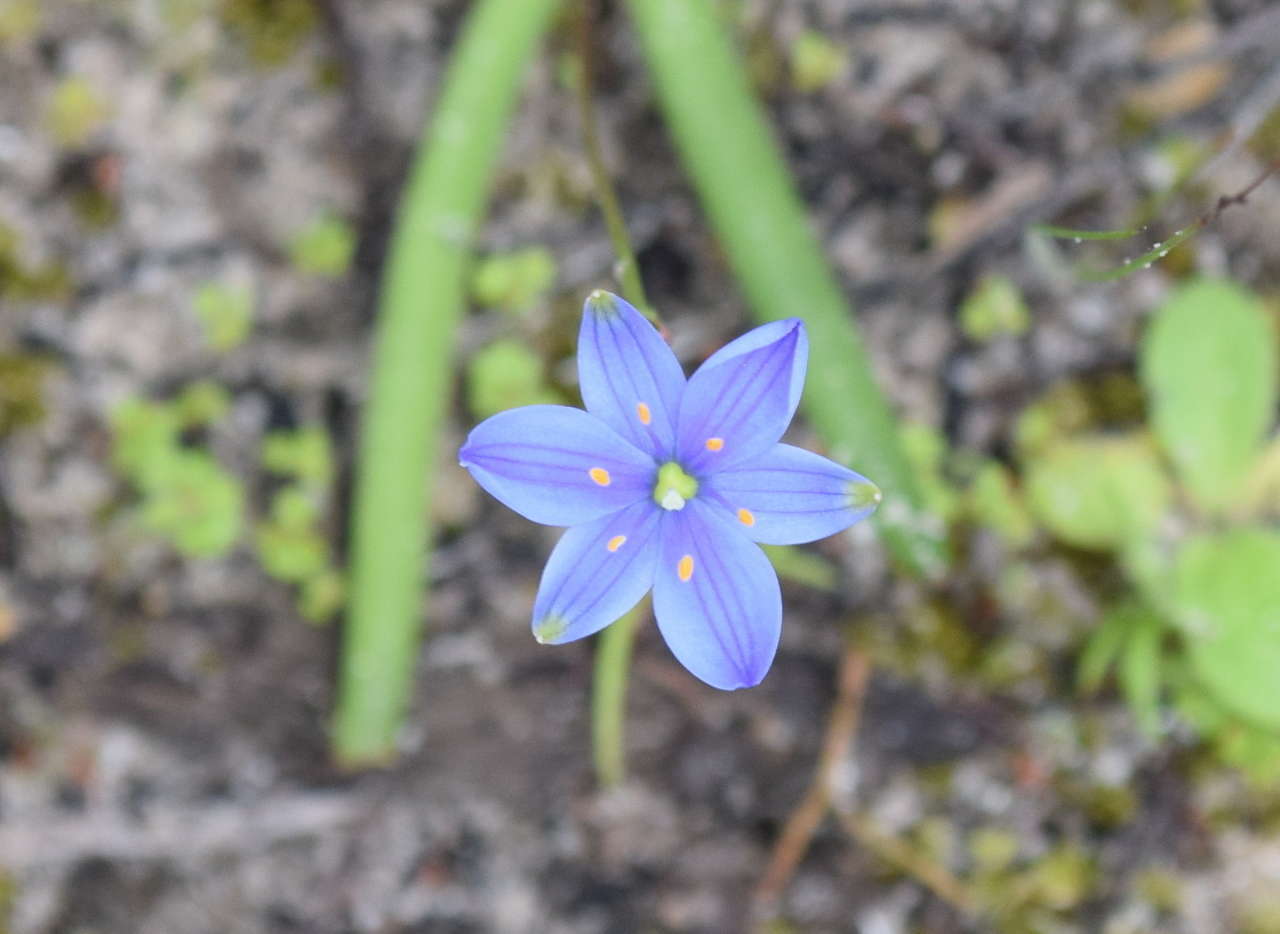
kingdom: Plantae
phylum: Tracheophyta
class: Liliopsida
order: Asparagales
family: Asphodelaceae
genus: Chamaescilla
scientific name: Chamaescilla corymbosa
